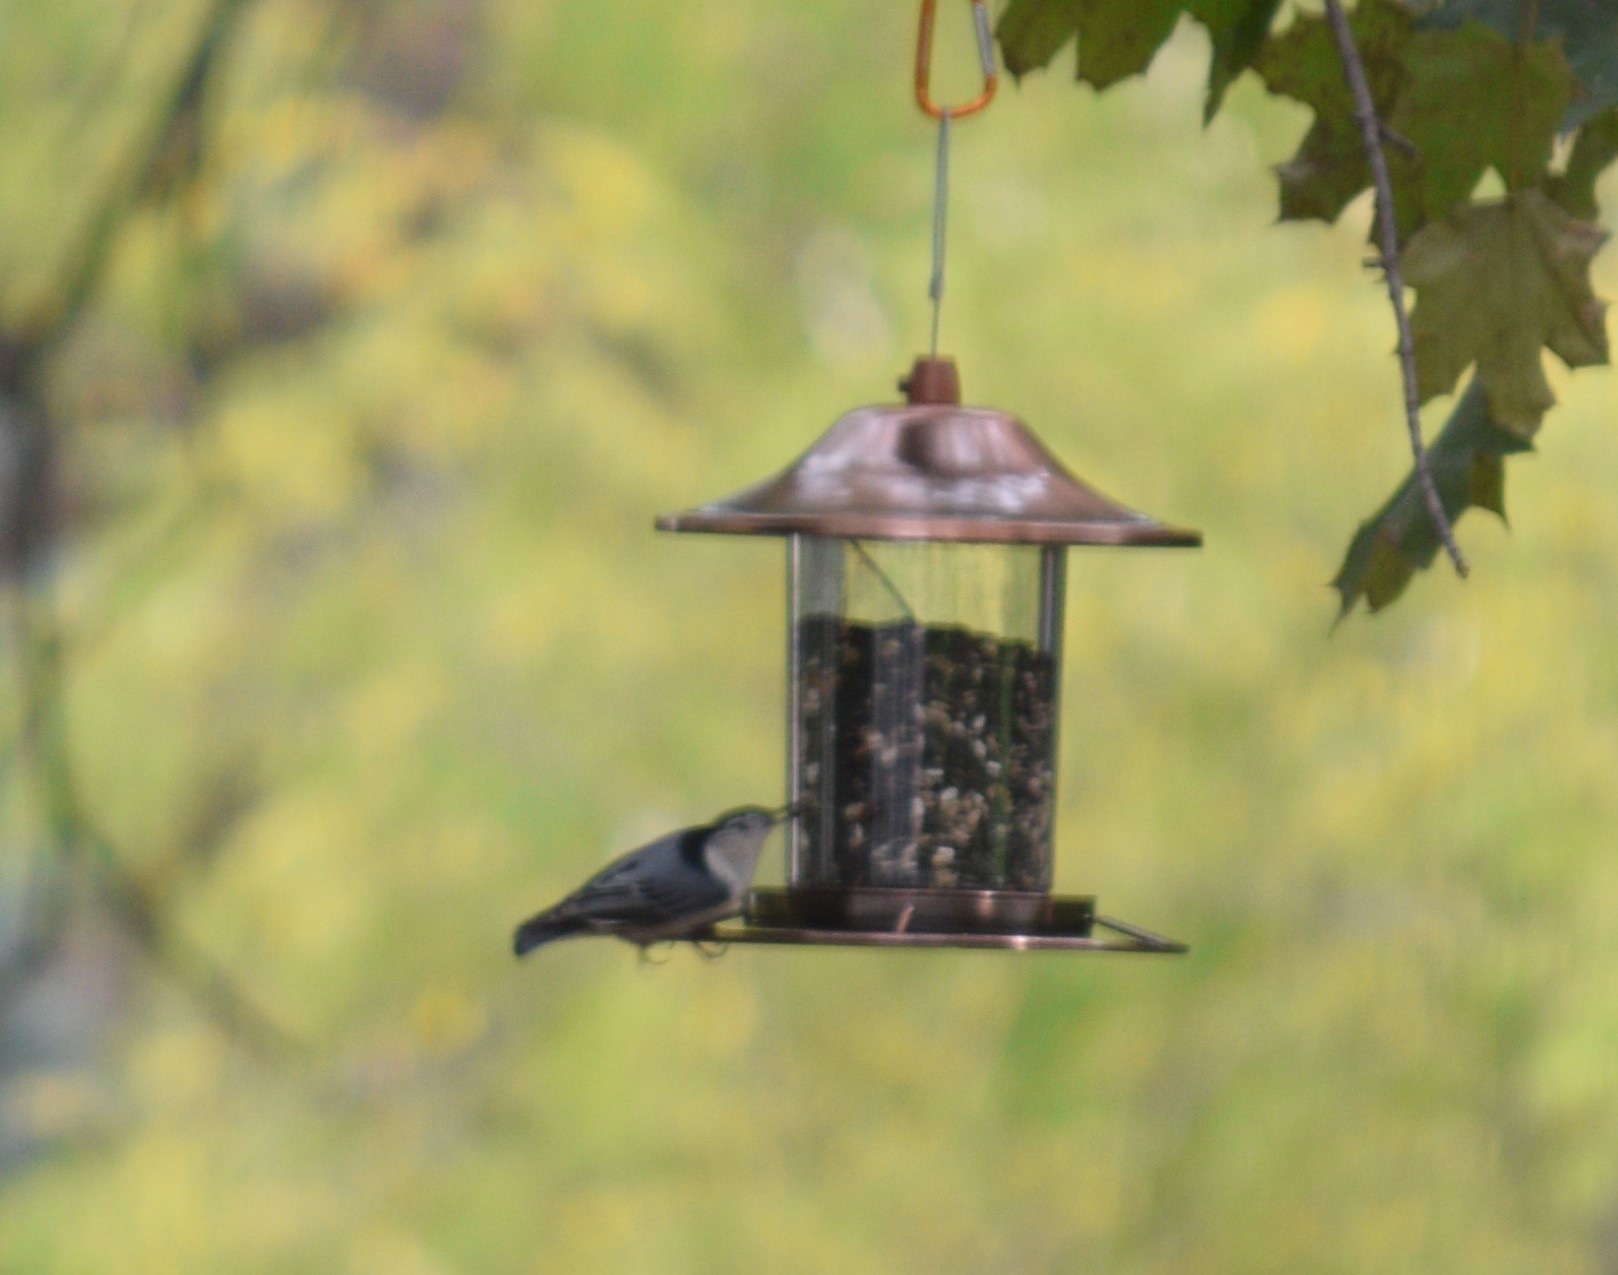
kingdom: Animalia
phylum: Chordata
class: Aves
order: Passeriformes
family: Sittidae
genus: Sitta
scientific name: Sitta carolinensis
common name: White-breasted nuthatch
